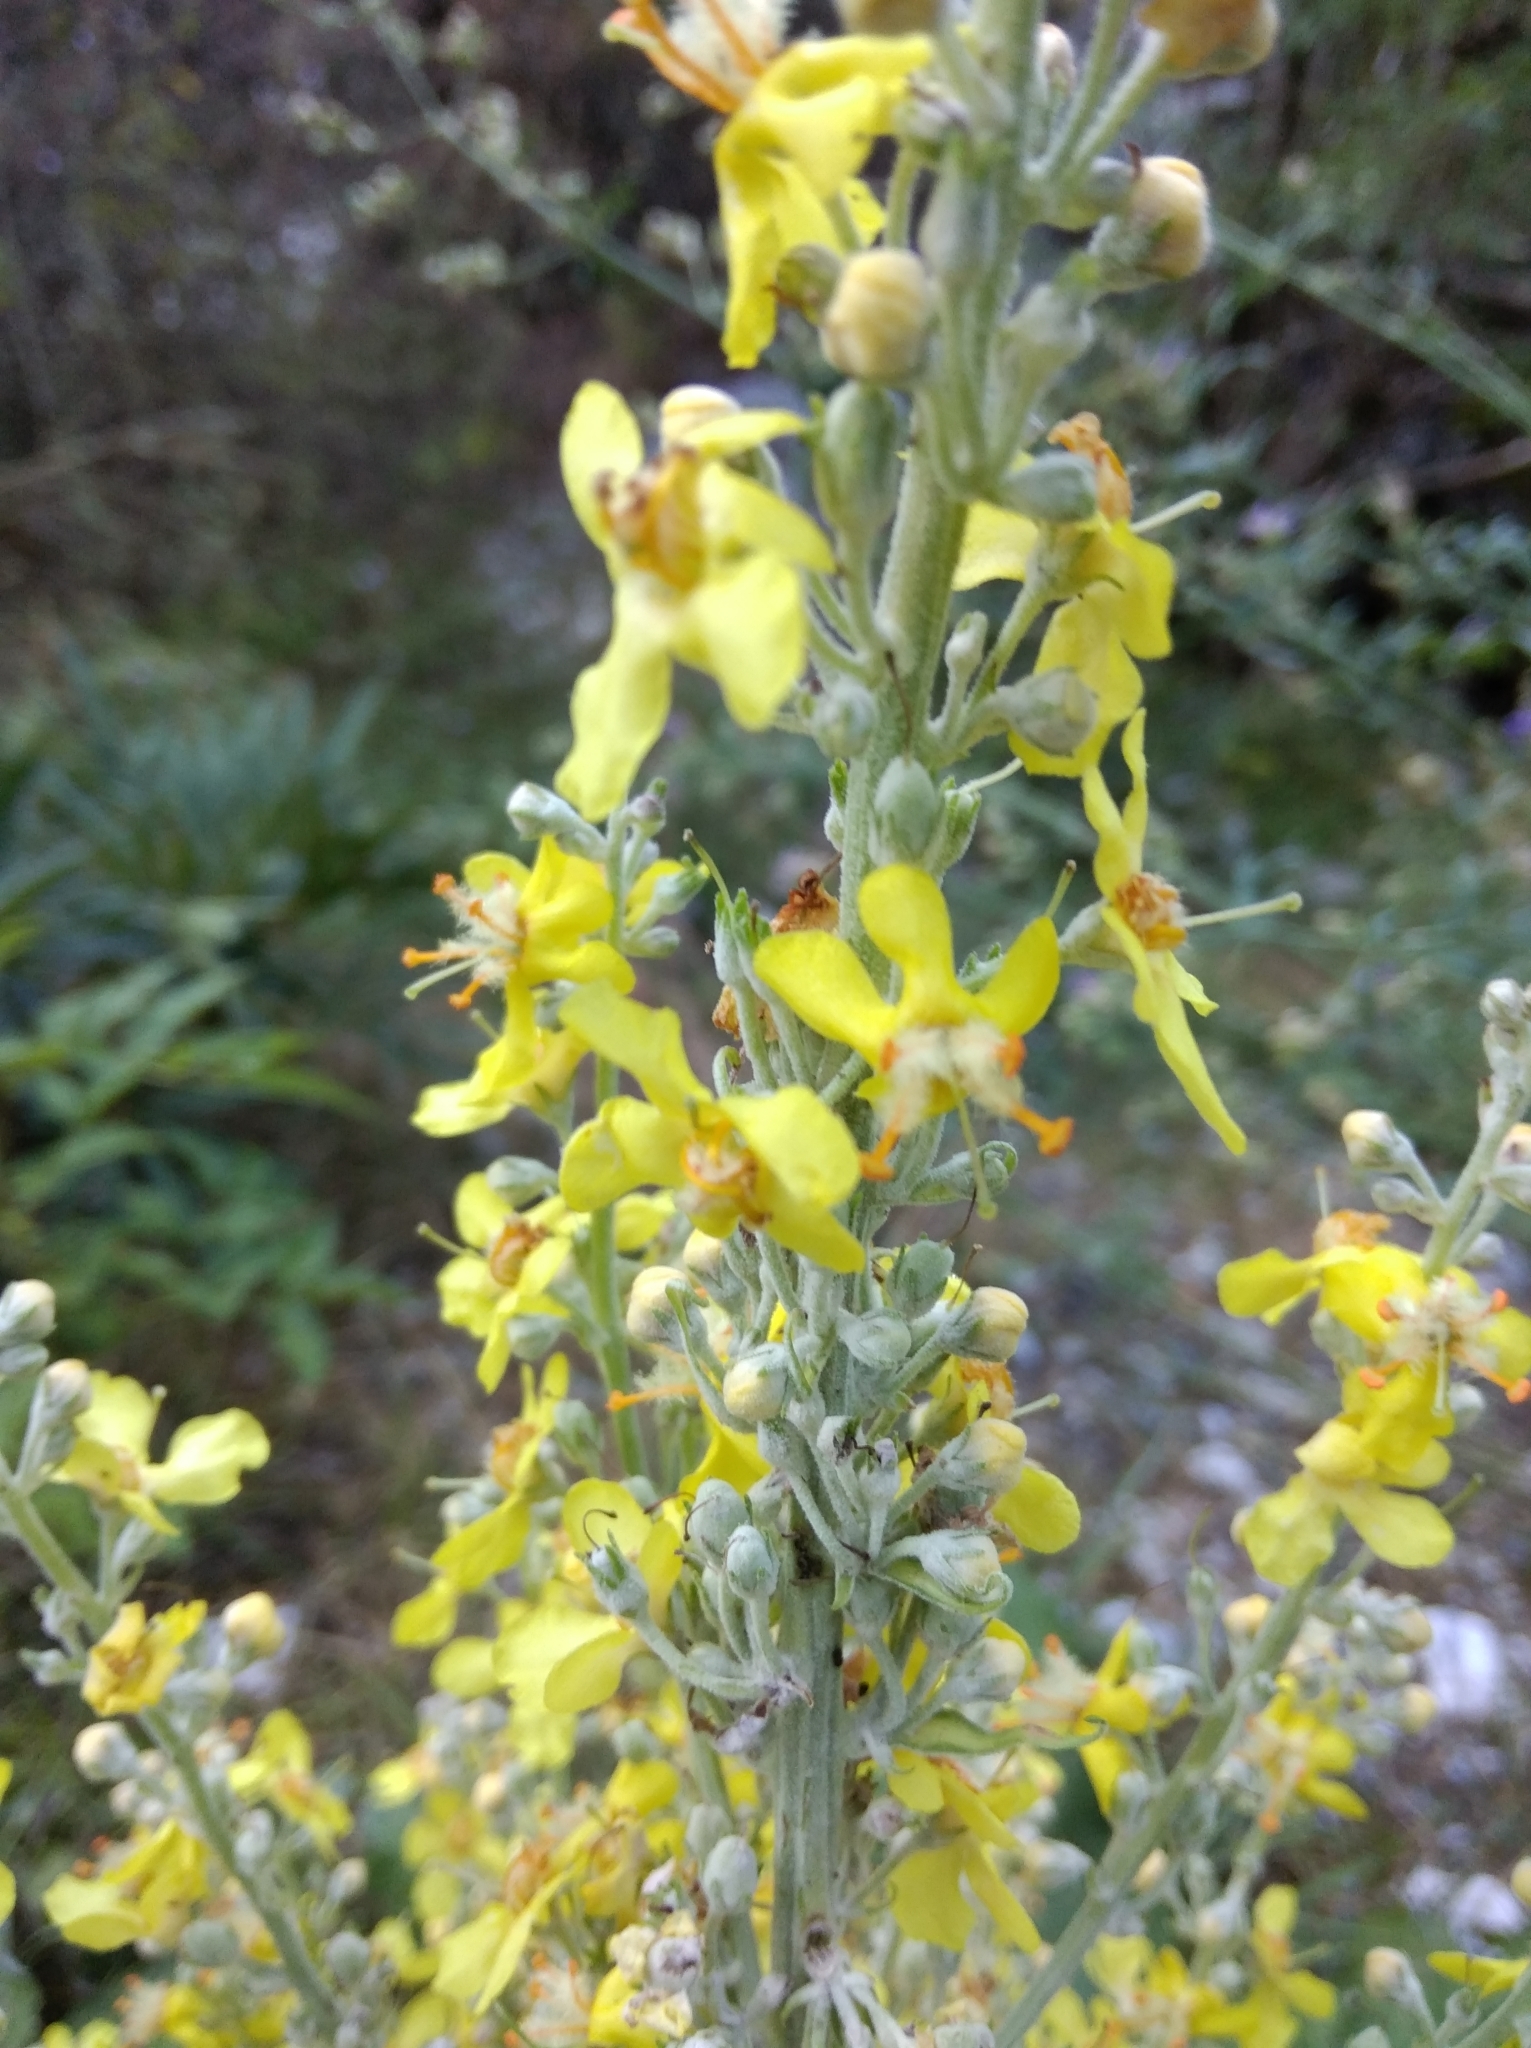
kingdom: Plantae
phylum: Tracheophyta
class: Magnoliopsida
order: Lamiales
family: Scrophulariaceae
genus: Verbascum
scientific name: Verbascum lychnitis
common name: White mullein
